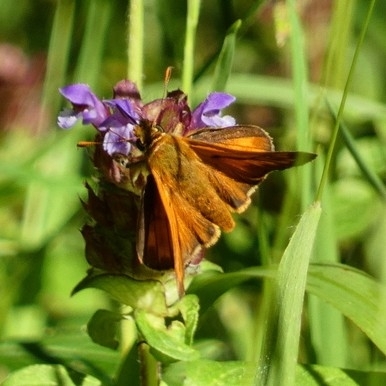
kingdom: Animalia
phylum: Arthropoda
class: Insecta
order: Lepidoptera
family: Hesperiidae
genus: Ochlodes
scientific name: Ochlodes venata
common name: Large skipper
